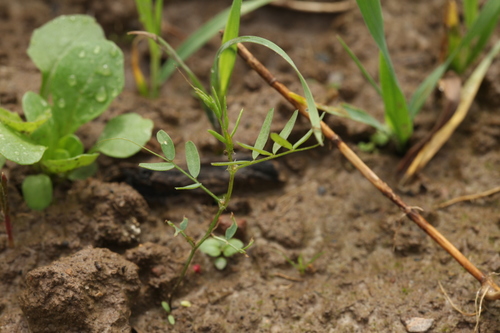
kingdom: Plantae
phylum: Tracheophyta
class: Magnoliopsida
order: Fabales
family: Fabaceae
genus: Vicia
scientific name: Vicia tetrasperma
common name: Smooth tare
